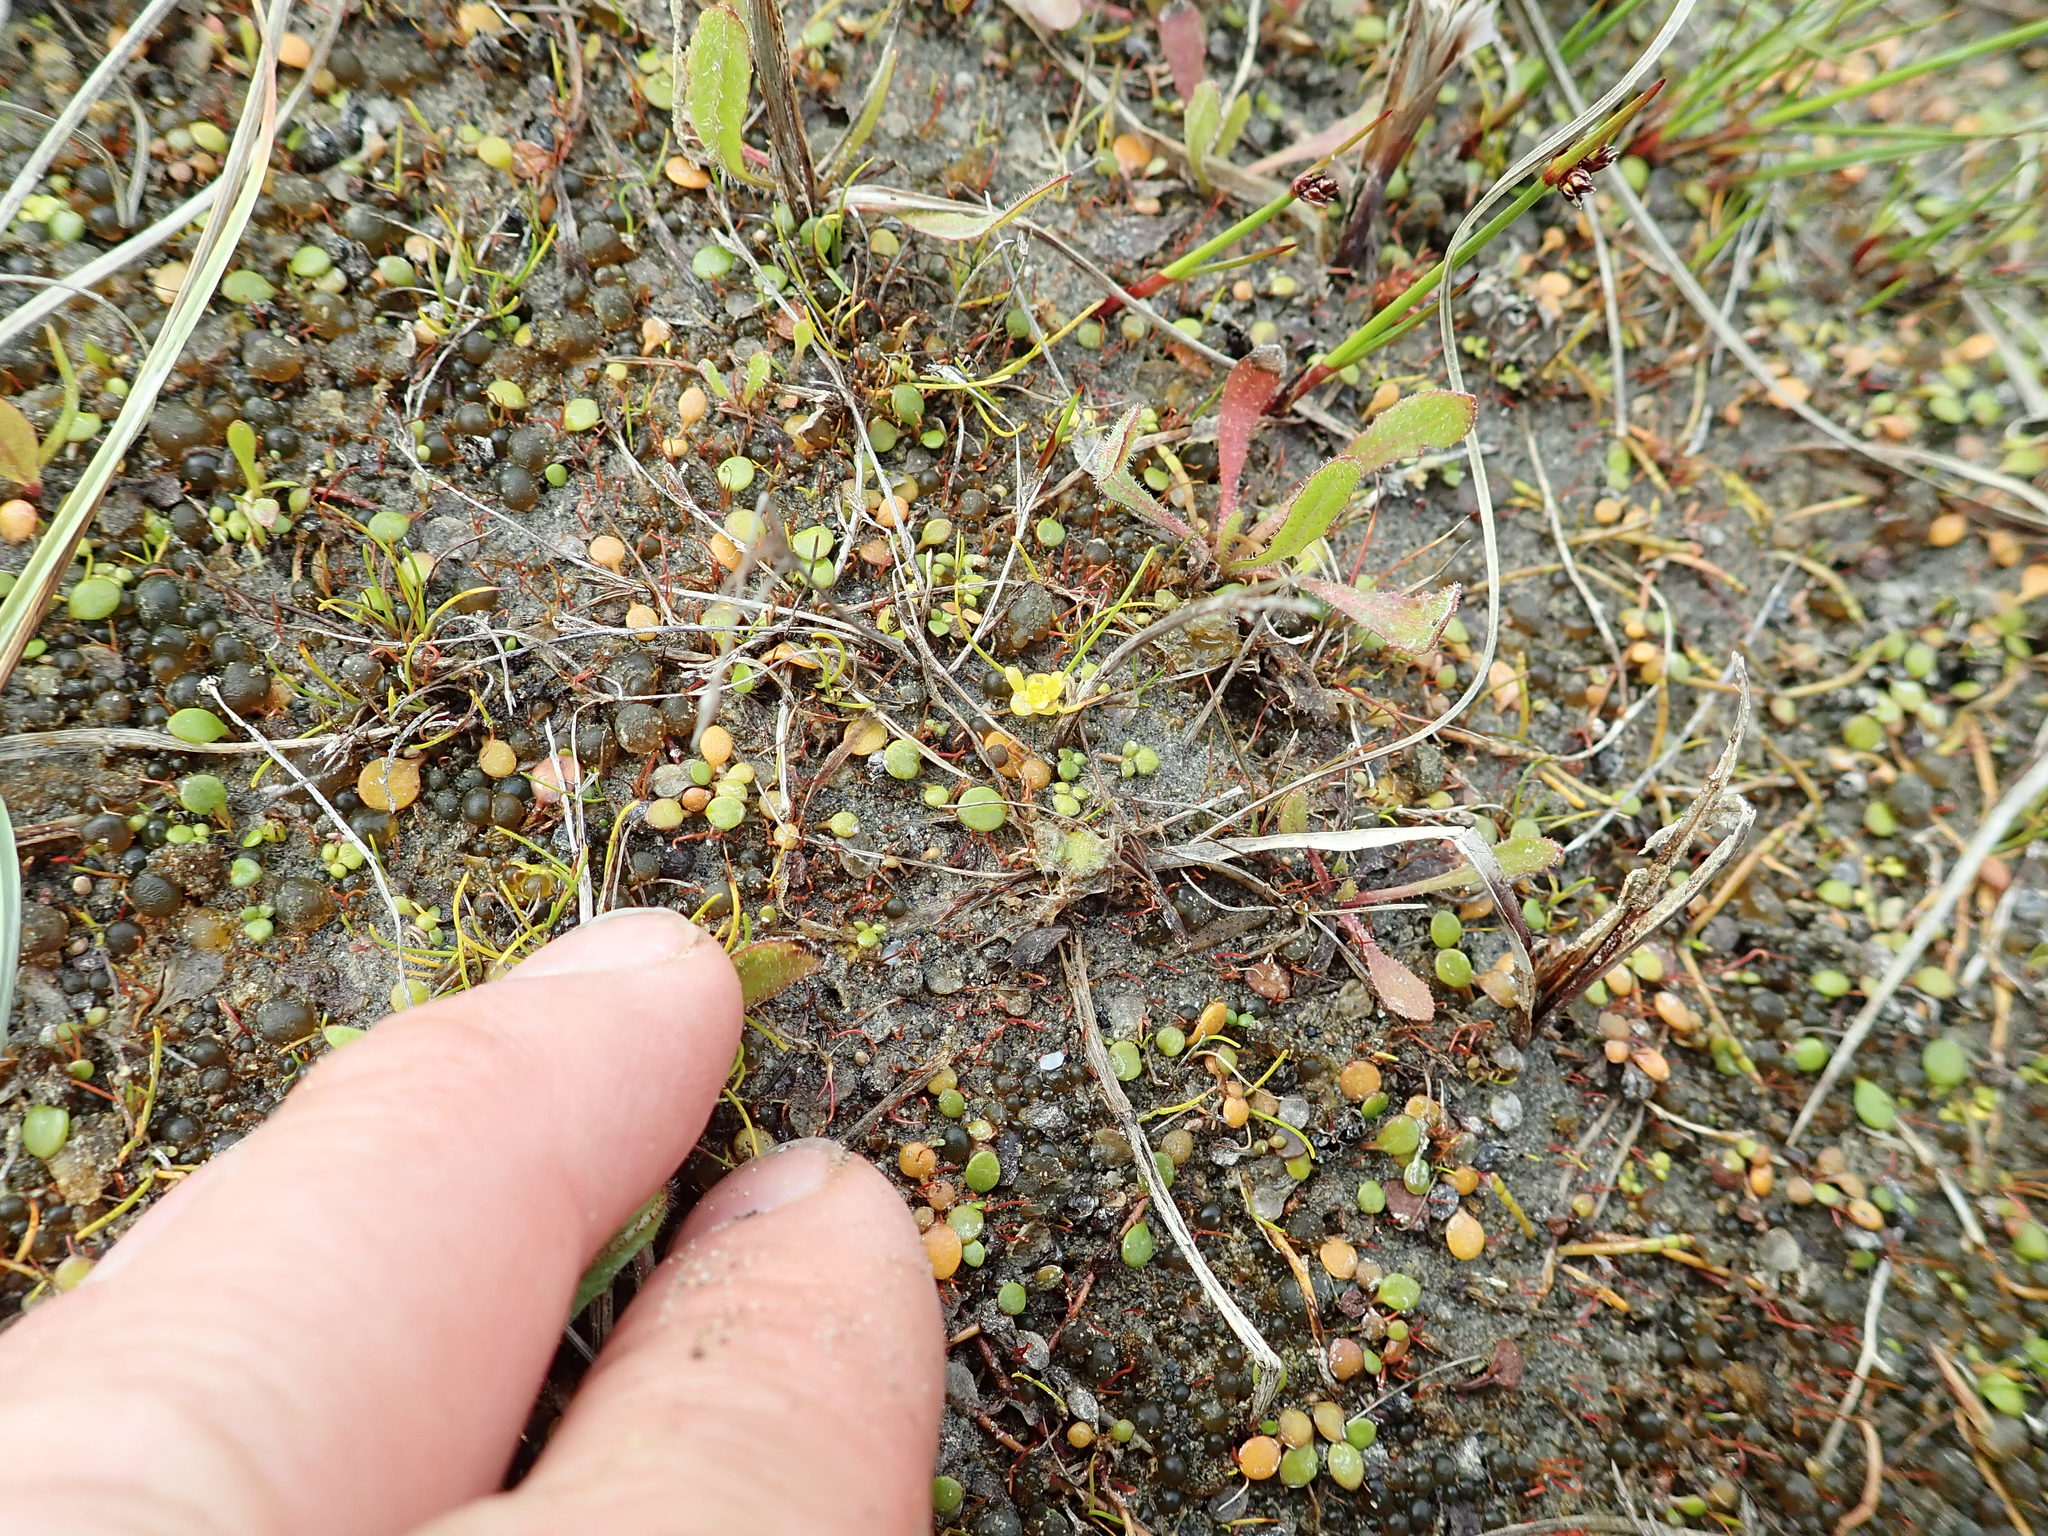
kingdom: Plantae
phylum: Tracheophyta
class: Magnoliopsida
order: Ranunculales
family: Ranunculaceae
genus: Ranunculus
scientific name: Ranunculus acaulis
